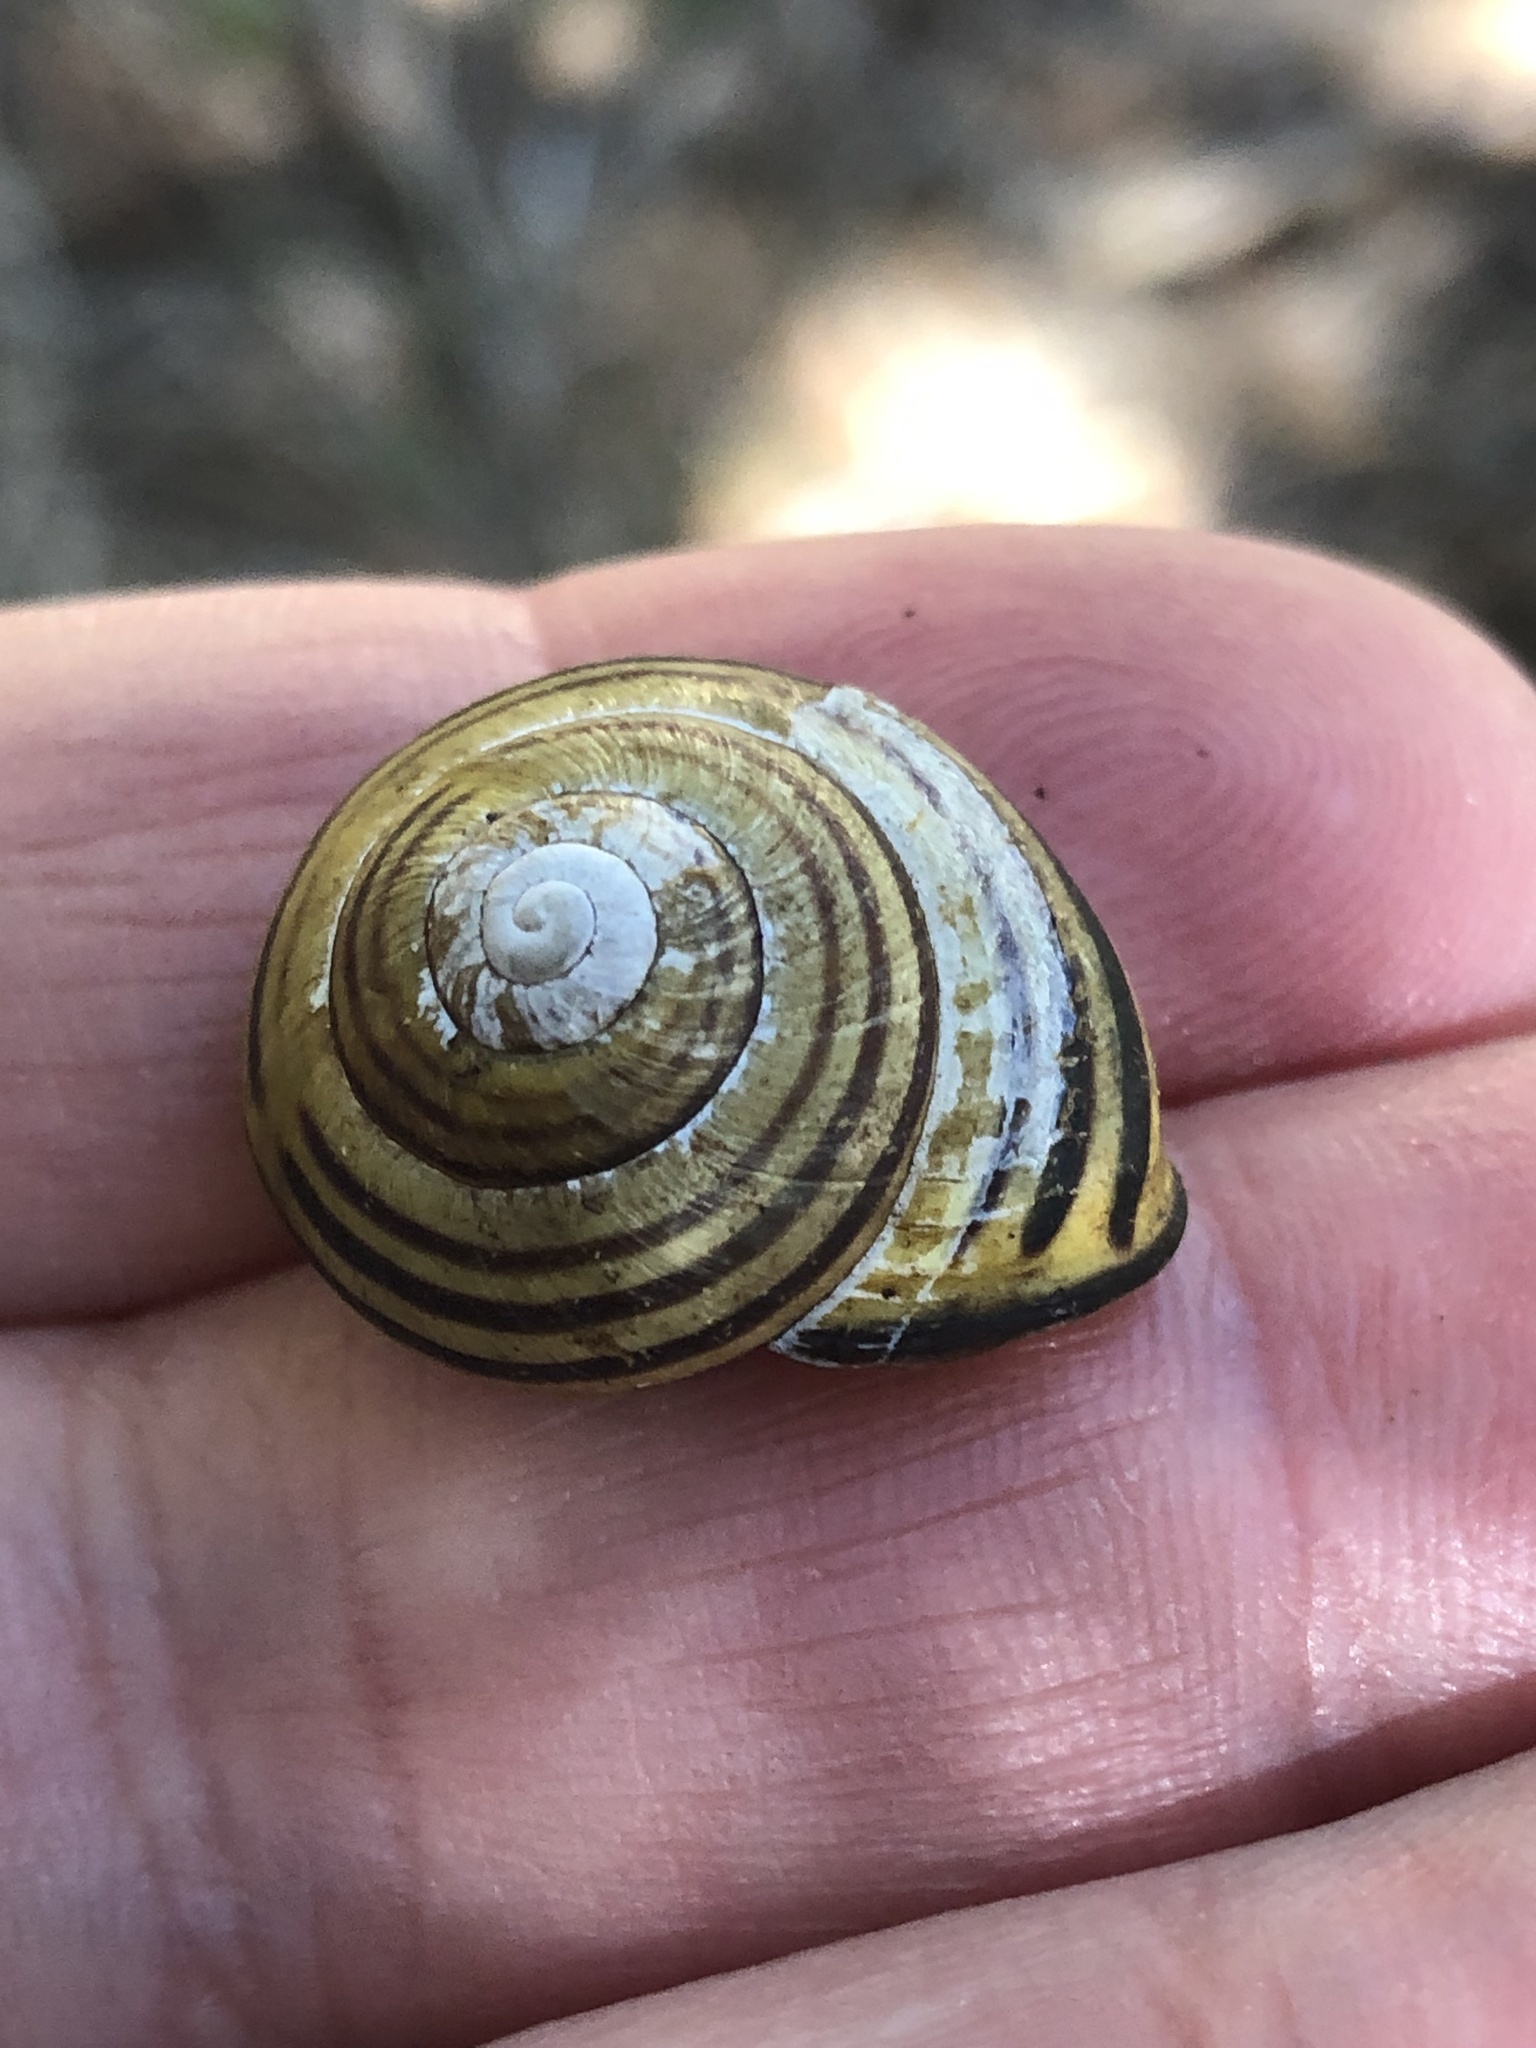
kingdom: Animalia
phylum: Mollusca
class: Gastropoda
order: Stylommatophora
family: Helicidae
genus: Cepaea
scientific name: Cepaea nemoralis
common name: Grovesnail
